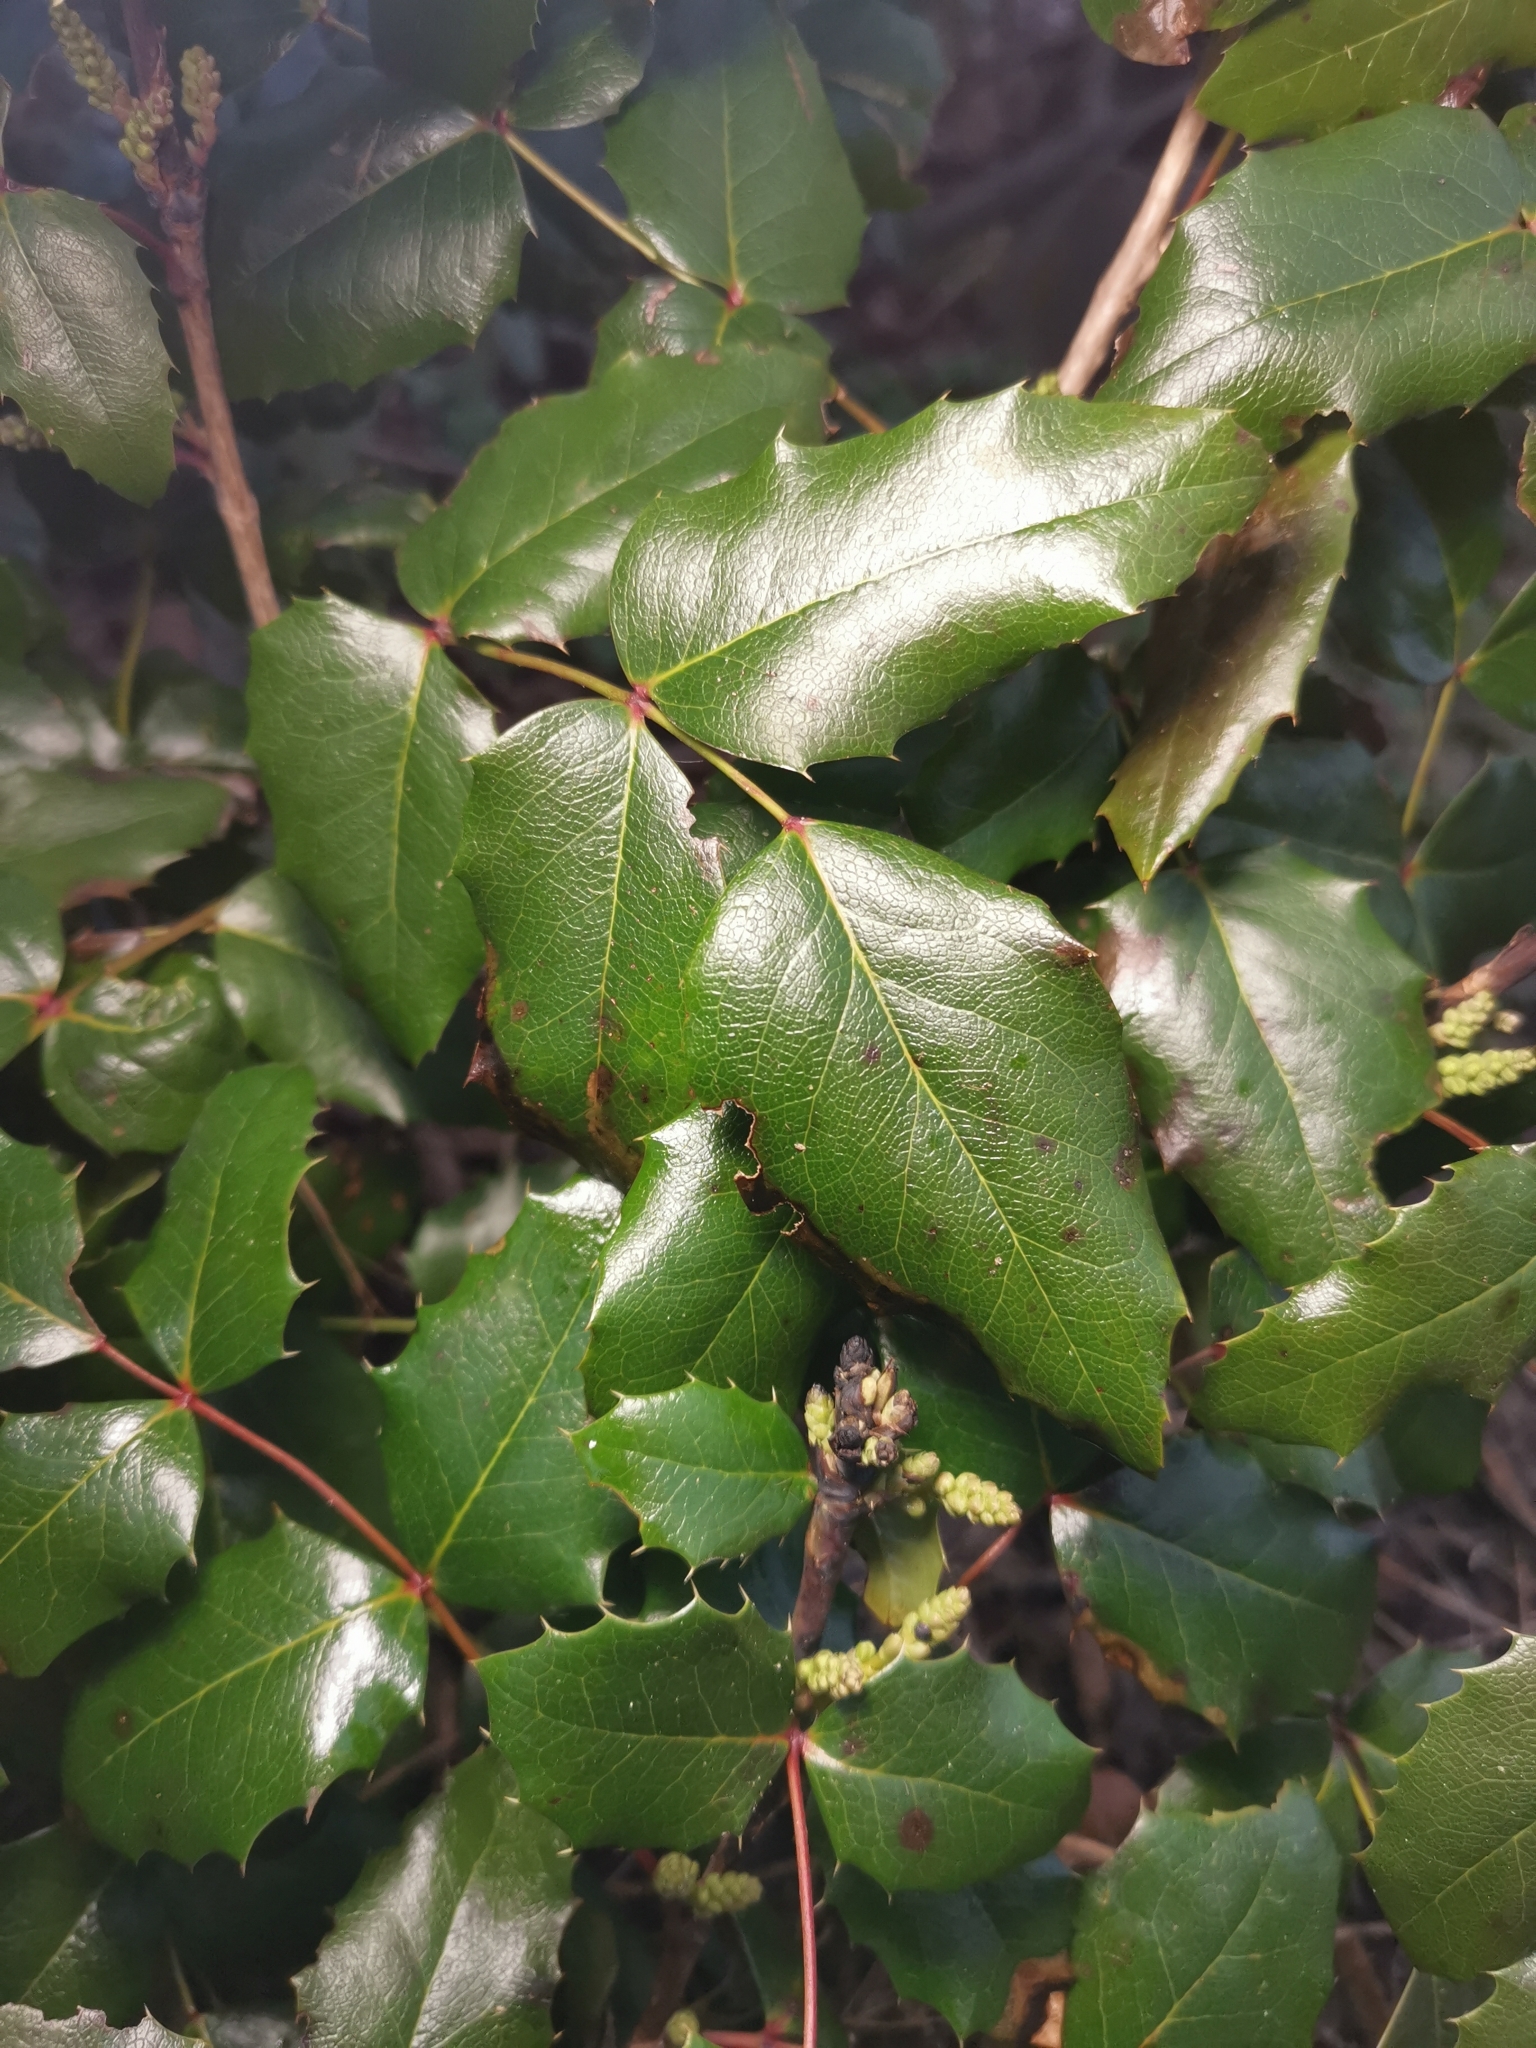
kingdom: Plantae
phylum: Tracheophyta
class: Magnoliopsida
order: Ranunculales
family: Berberidaceae
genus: Mahonia
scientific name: Mahonia aquifolium
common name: Oregon-grape
